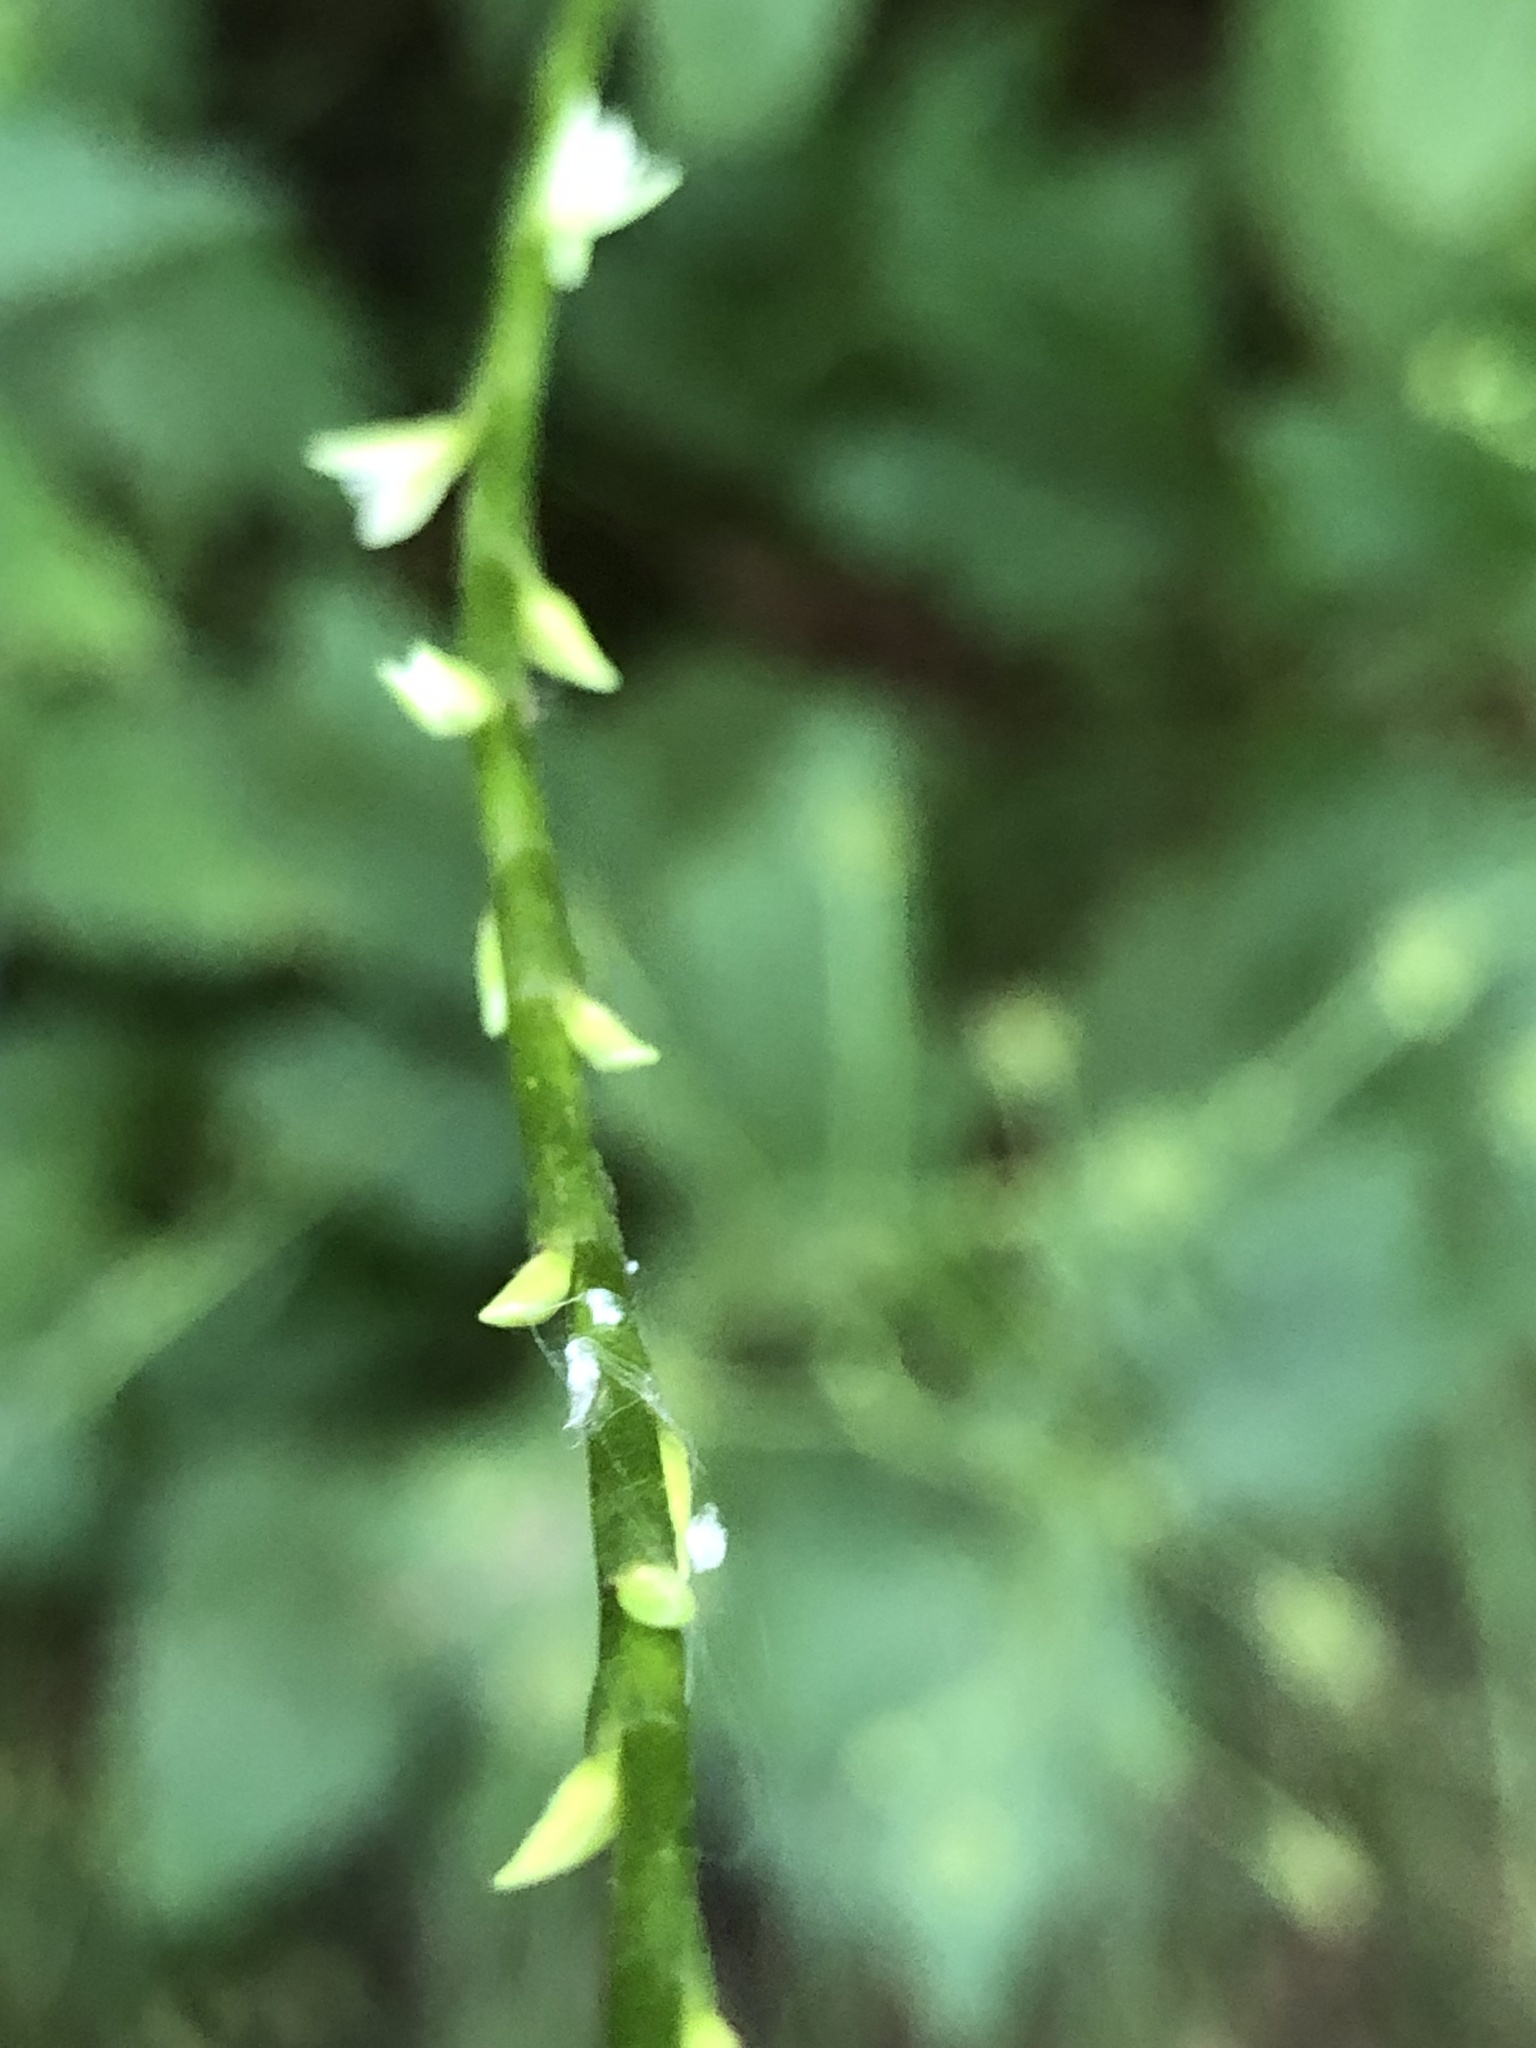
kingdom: Plantae
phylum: Tracheophyta
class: Magnoliopsida
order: Caryophyllales
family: Polygonaceae
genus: Persicaria
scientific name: Persicaria virginiana
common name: Jumpseed
